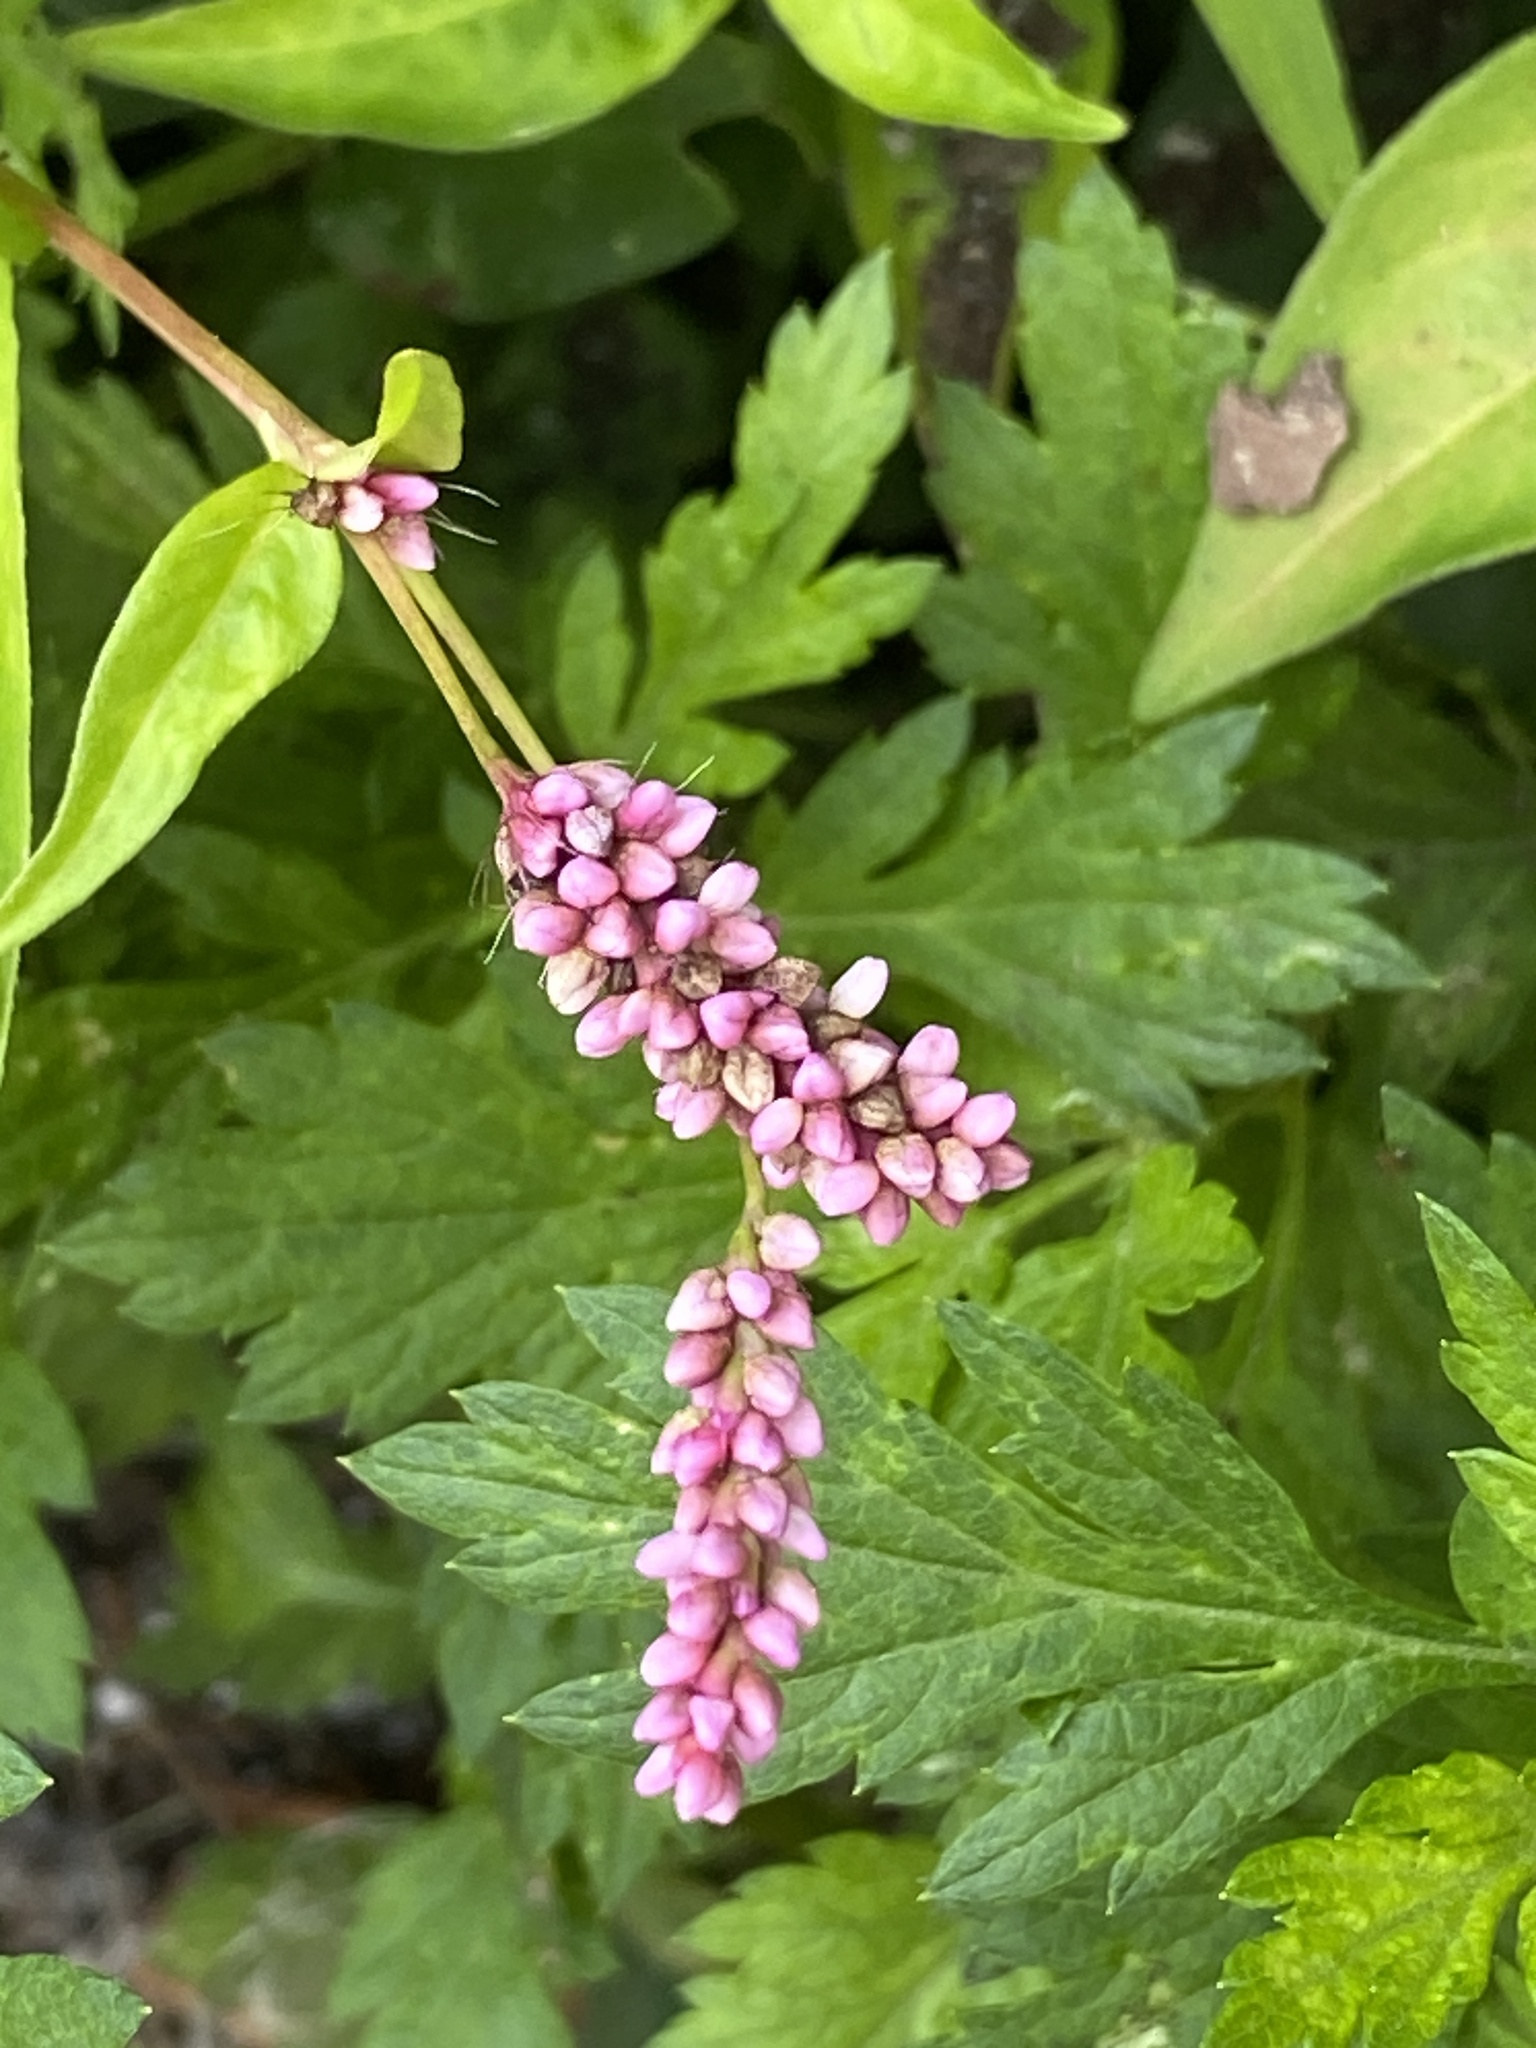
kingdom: Plantae
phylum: Tracheophyta
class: Magnoliopsida
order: Caryophyllales
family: Polygonaceae
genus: Persicaria
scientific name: Persicaria longiseta
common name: Bristly lady's-thumb
